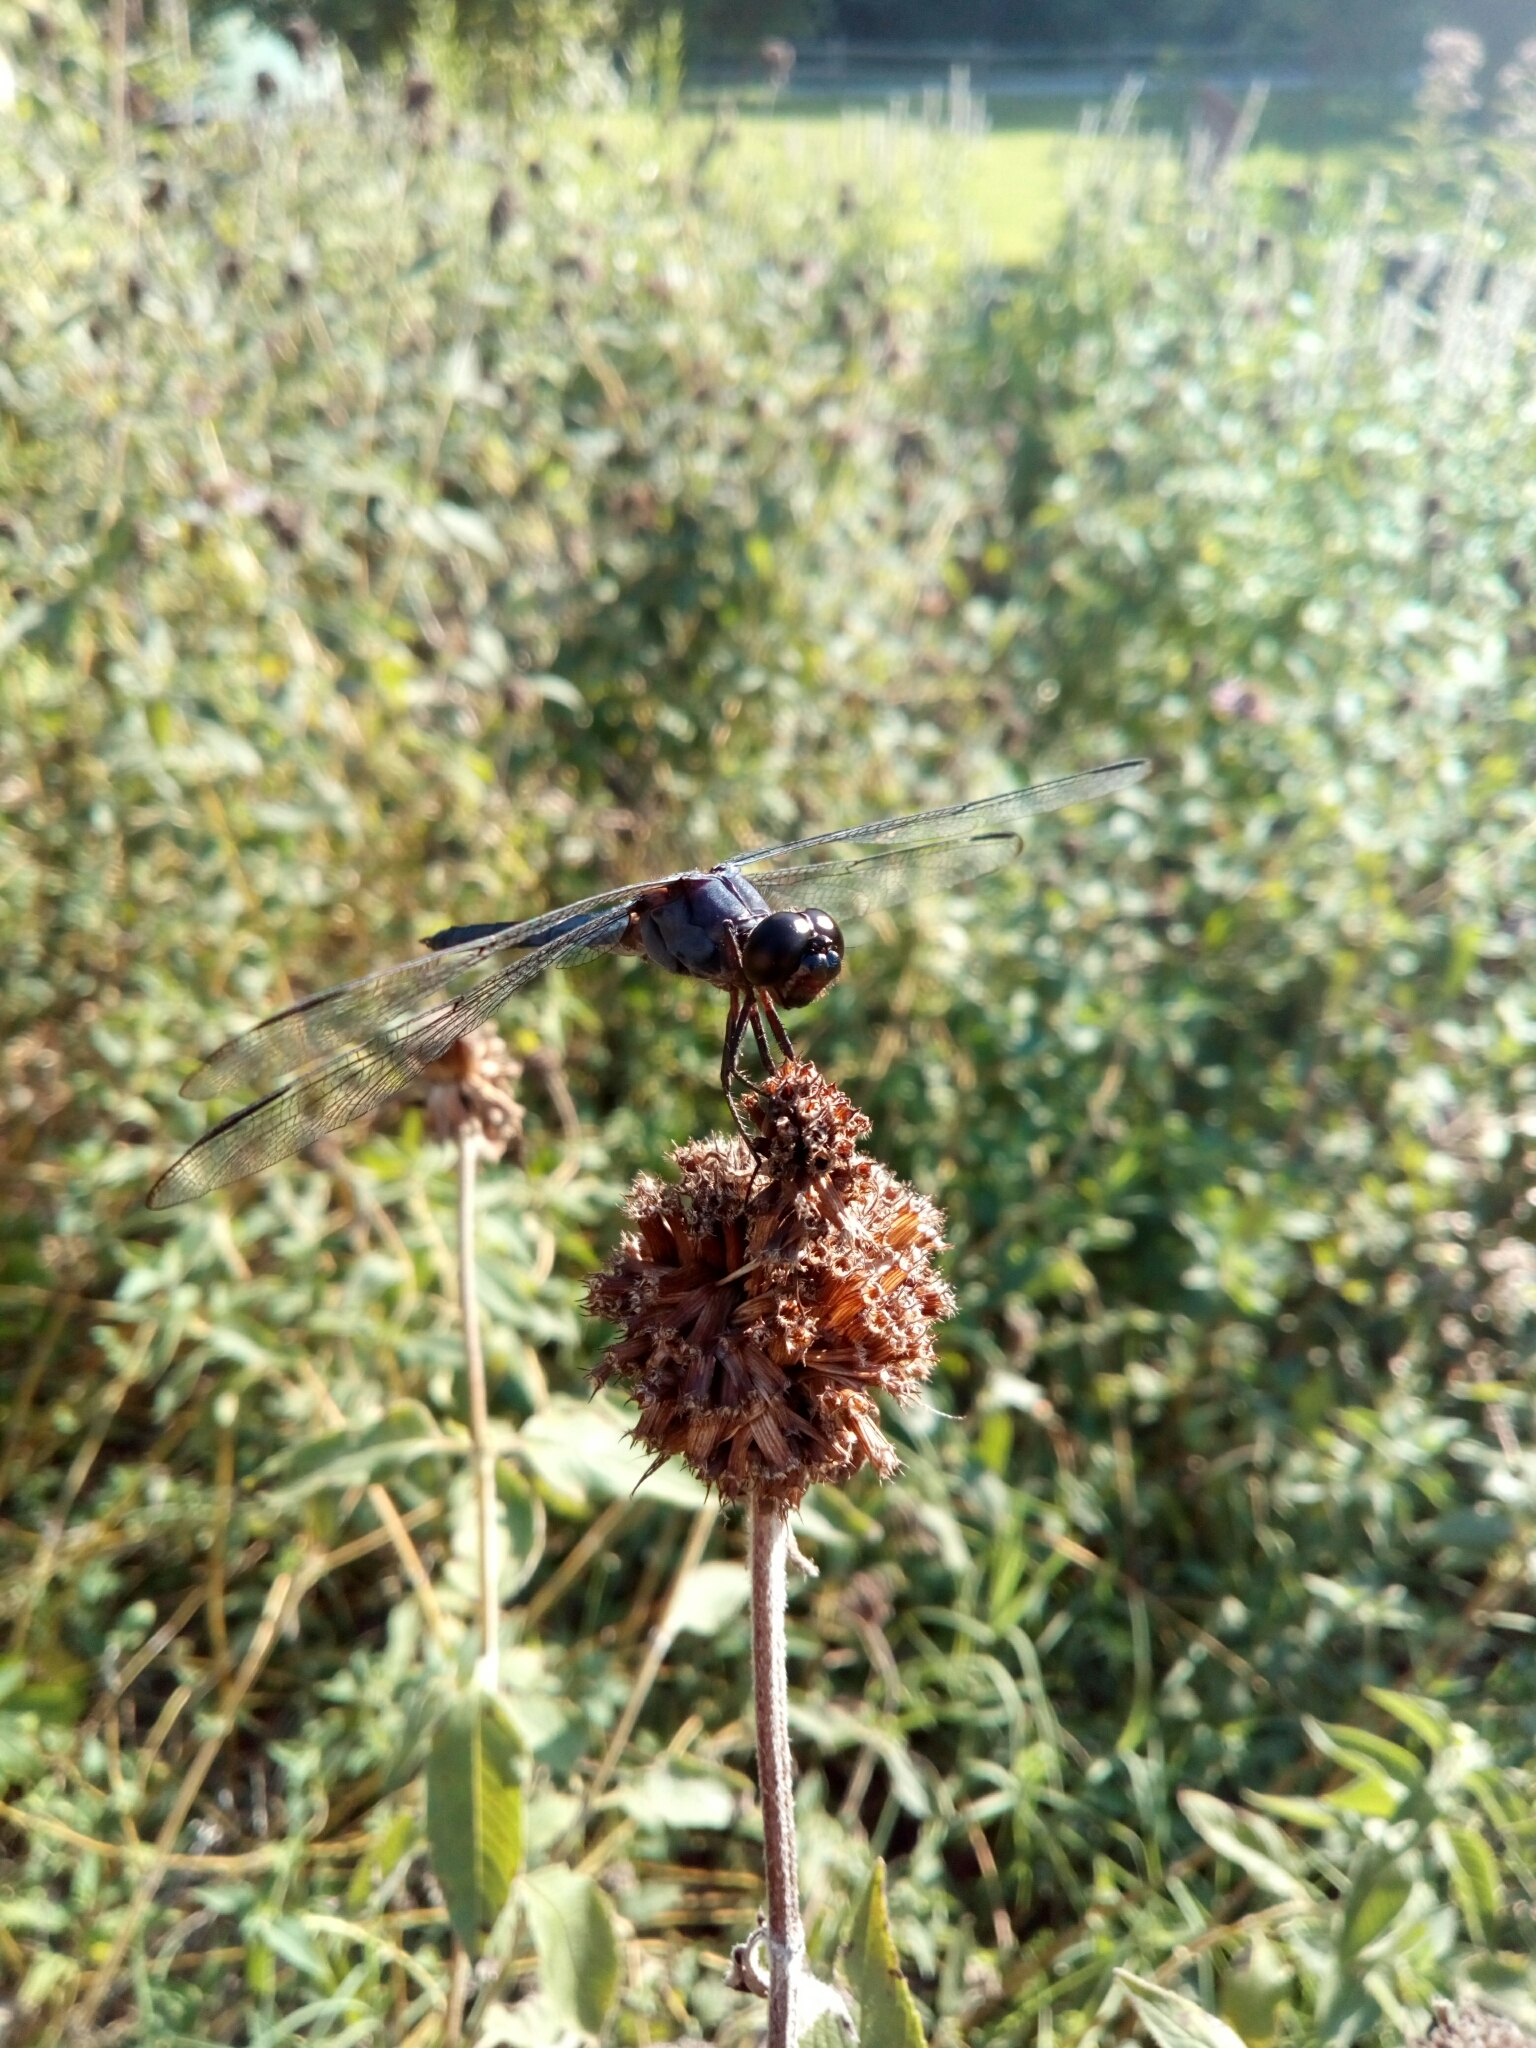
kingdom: Animalia
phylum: Arthropoda
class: Insecta
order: Odonata
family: Libellulidae
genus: Libellula
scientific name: Libellula incesta
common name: Slaty skimmer
